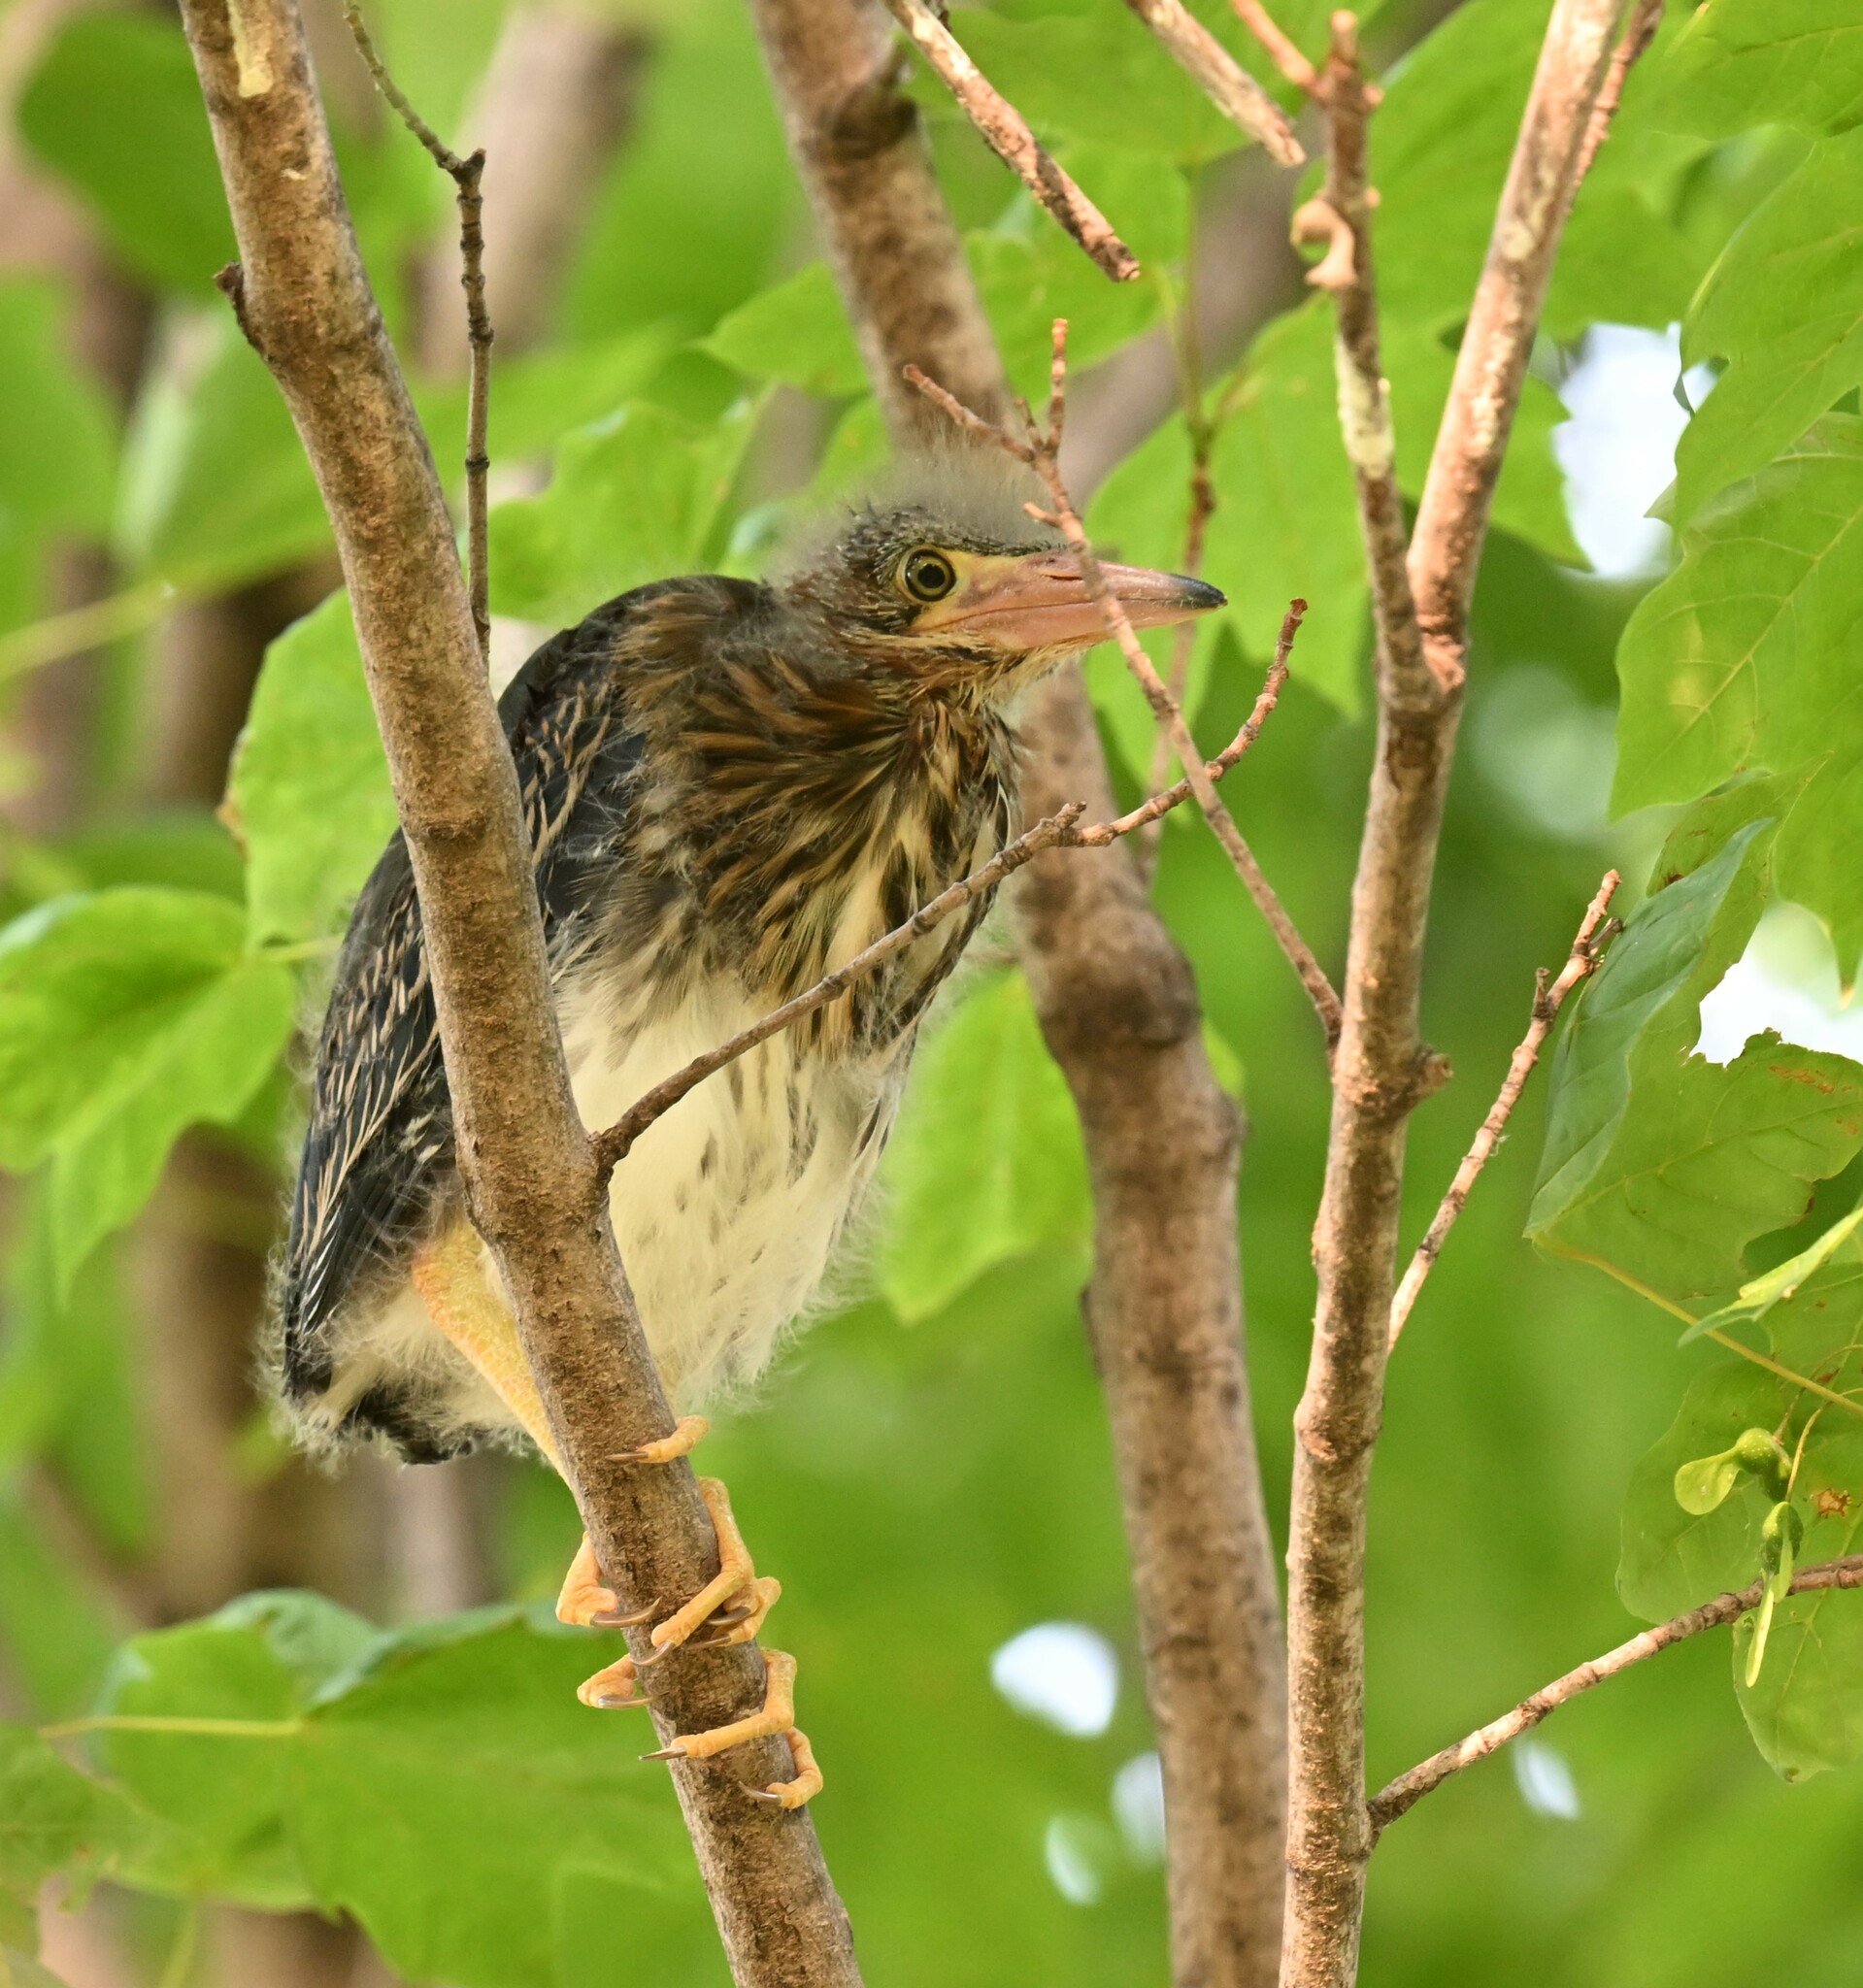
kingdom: Animalia
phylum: Chordata
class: Aves
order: Pelecaniformes
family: Ardeidae
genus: Butorides
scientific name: Butorides virescens
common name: Green heron
